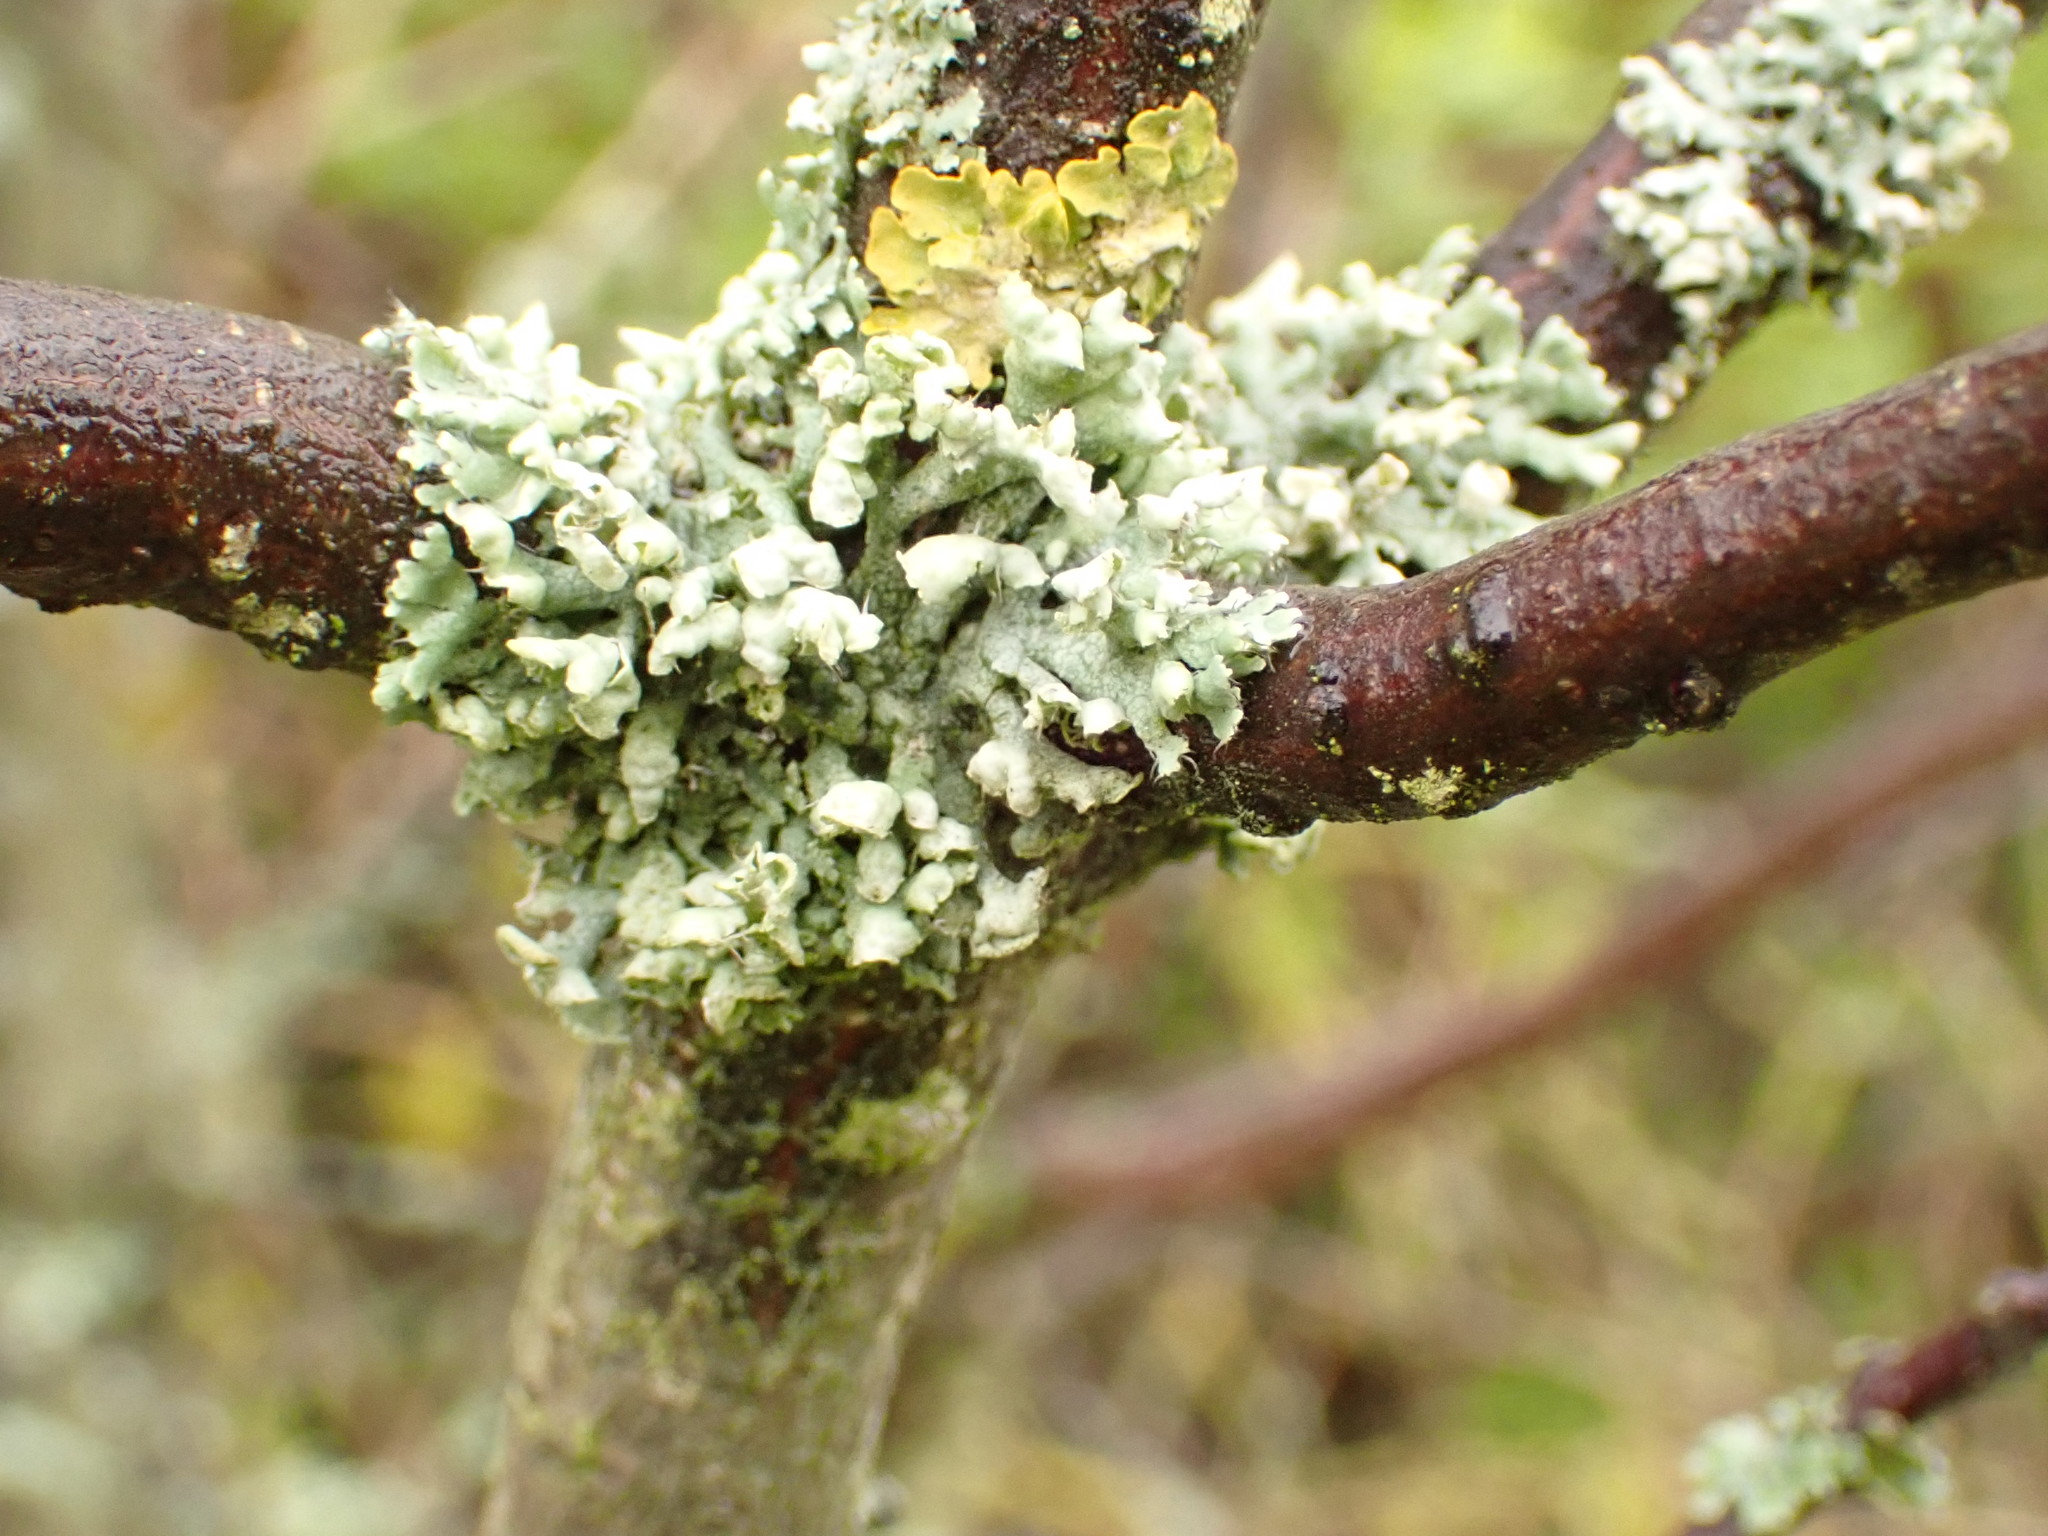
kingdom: Fungi
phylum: Ascomycota
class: Lecanoromycetes
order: Caliciales
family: Physciaceae
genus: Physcia
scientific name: Physcia adscendens
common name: Hooded rosette lichen
